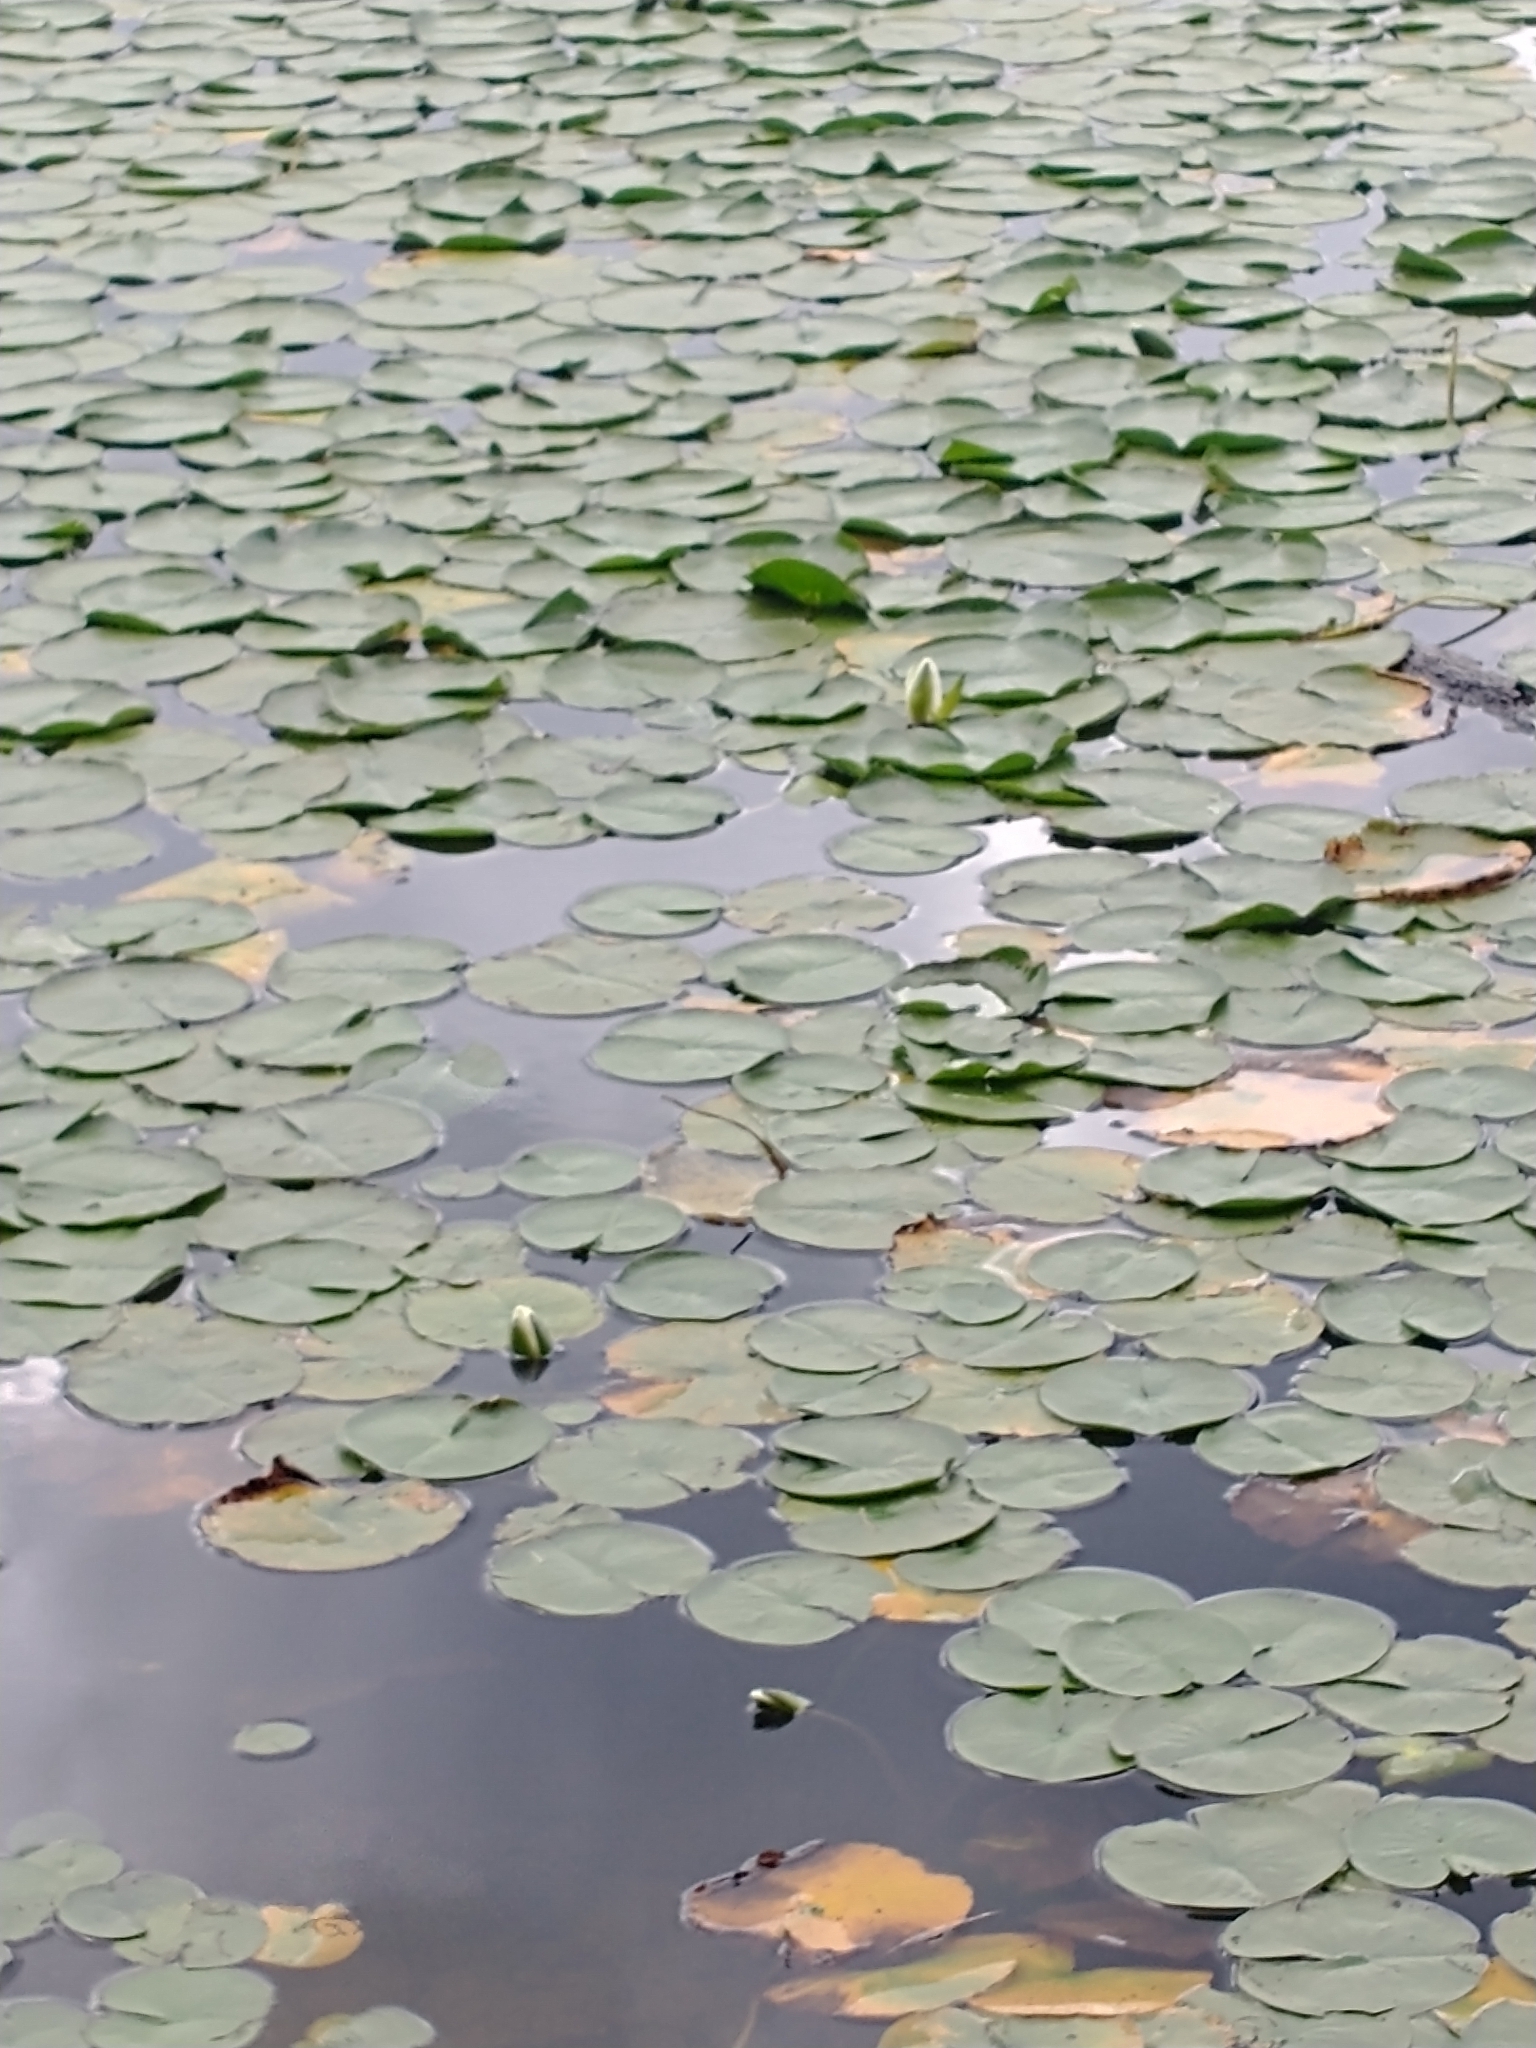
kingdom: Plantae
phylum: Tracheophyta
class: Magnoliopsida
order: Nymphaeales
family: Nymphaeaceae
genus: Nymphaea
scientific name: Nymphaea odorata
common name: Fragrant water-lily
